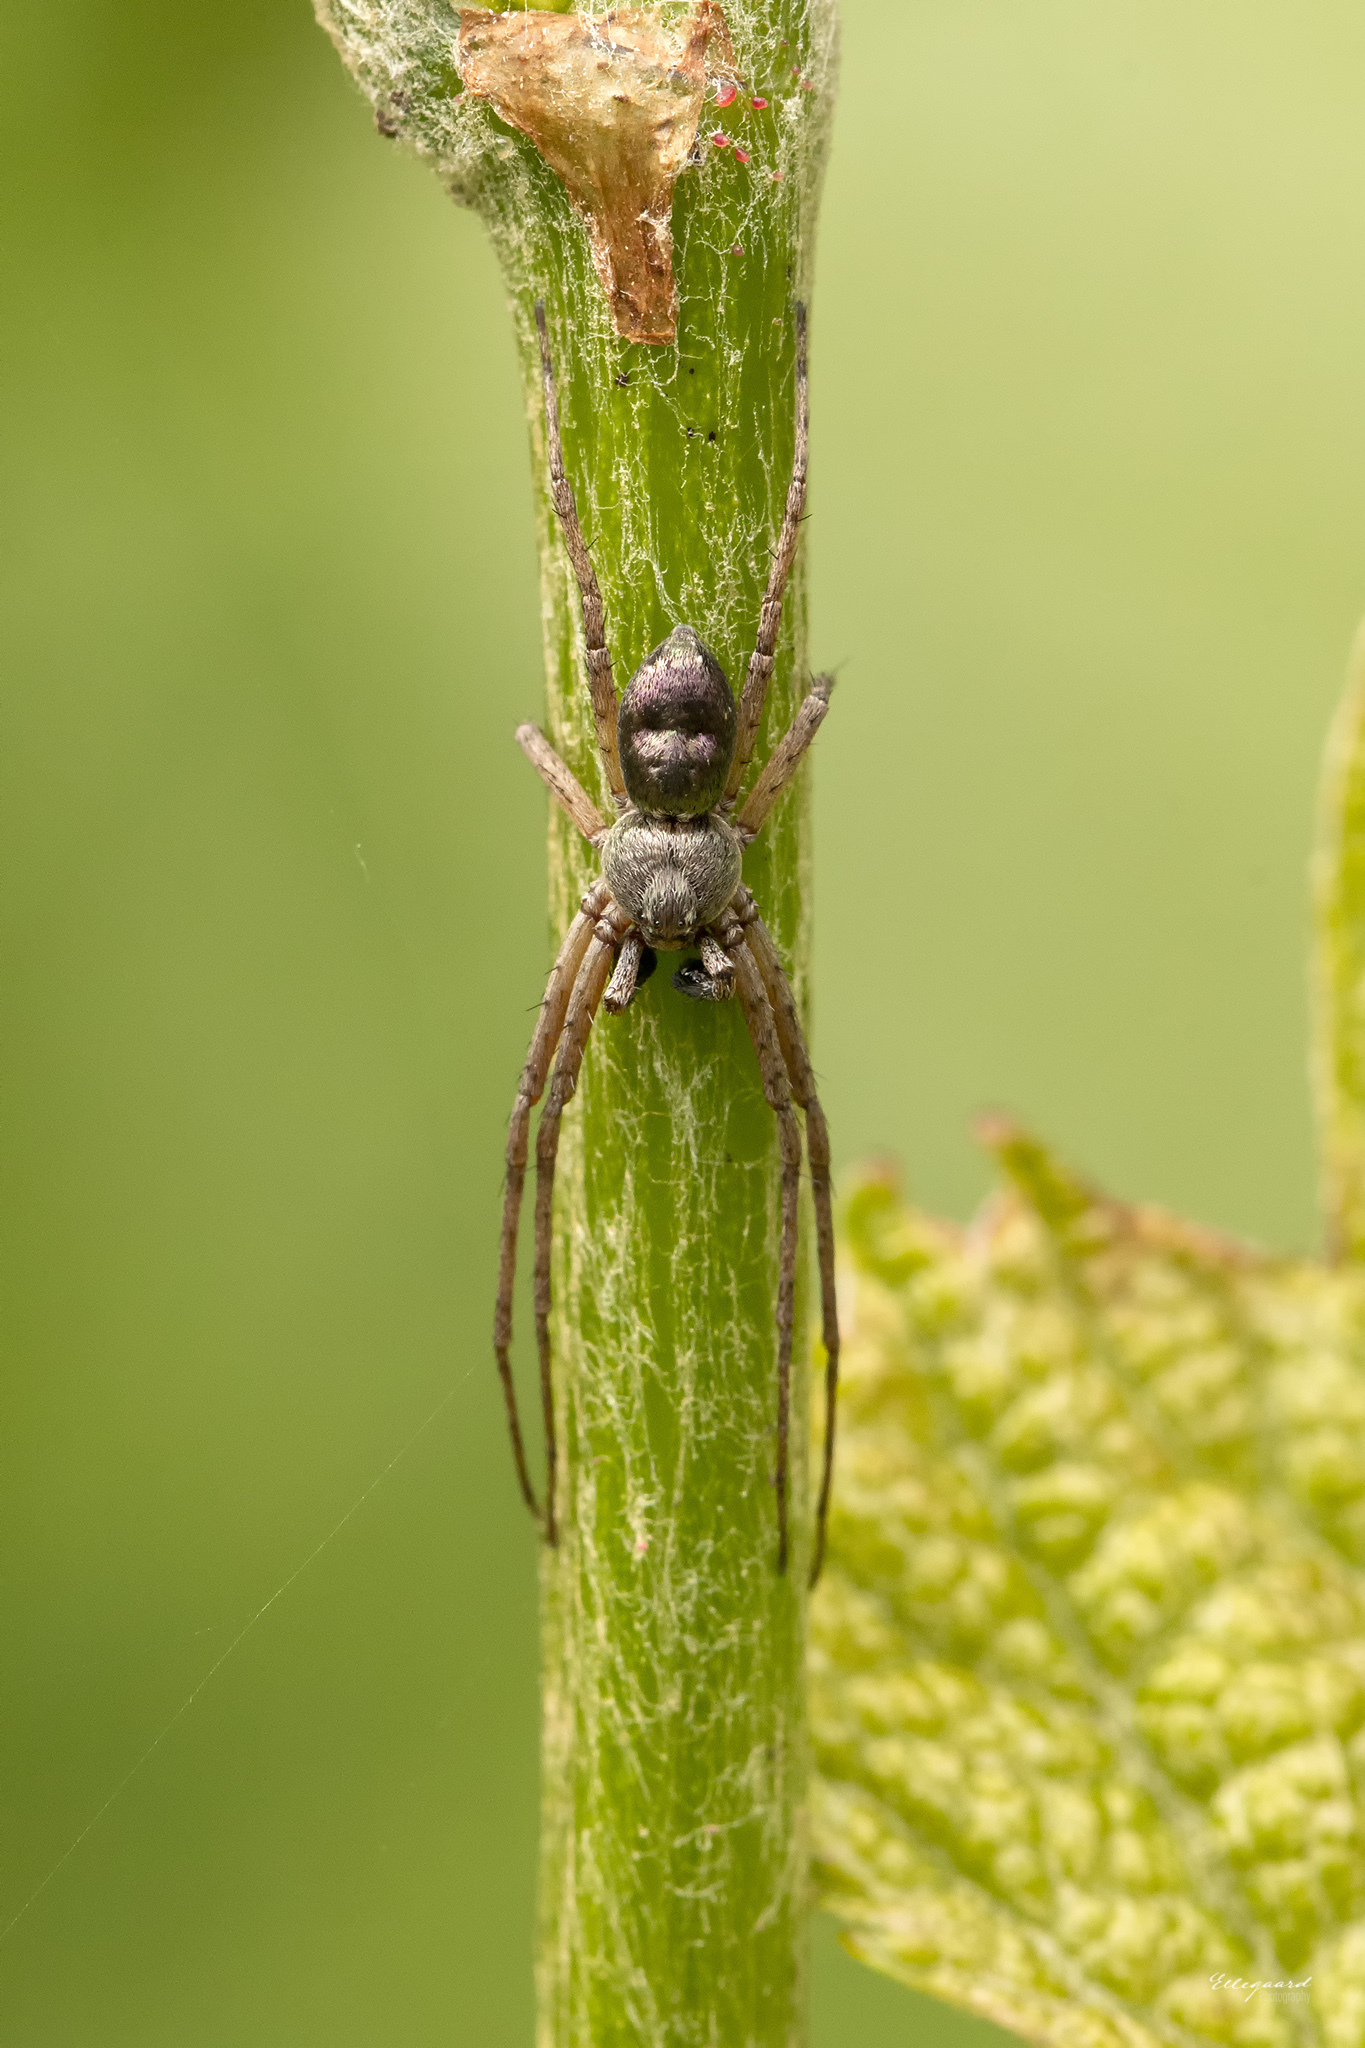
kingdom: Animalia
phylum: Arthropoda
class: Arachnida
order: Araneae
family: Philodromidae
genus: Philodromus
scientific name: Philodromus aureolus
